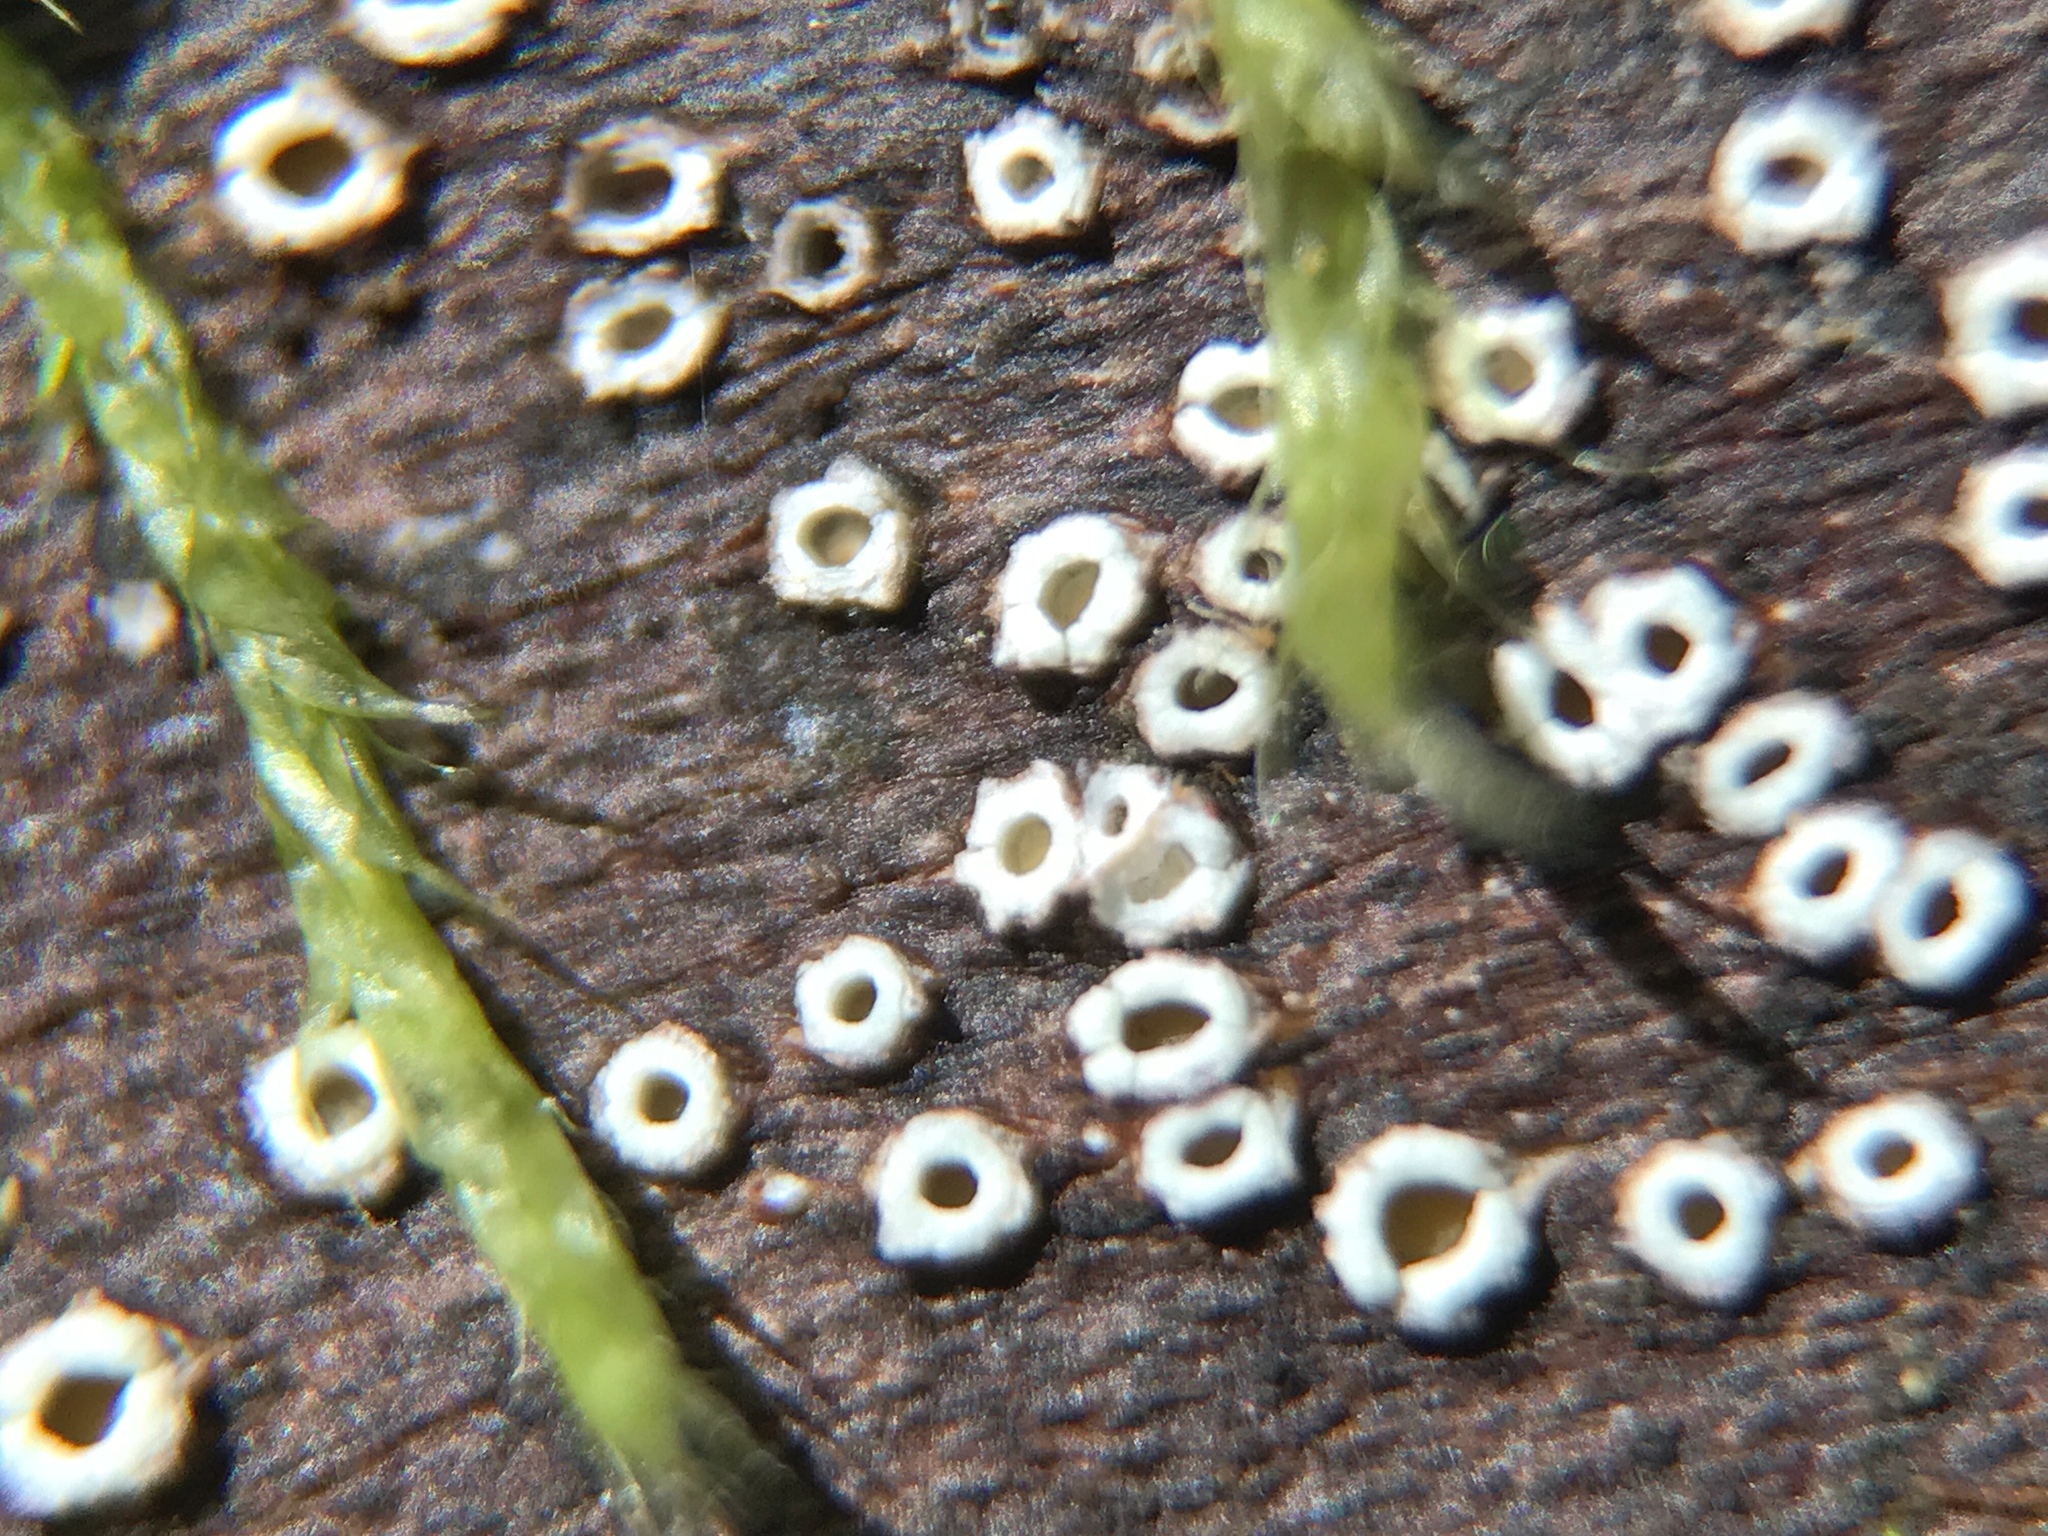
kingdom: Fungi
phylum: Ascomycota
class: Lecanoromycetes
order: Ostropales
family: Stictidaceae
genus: Stictis
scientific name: Stictis radiata
